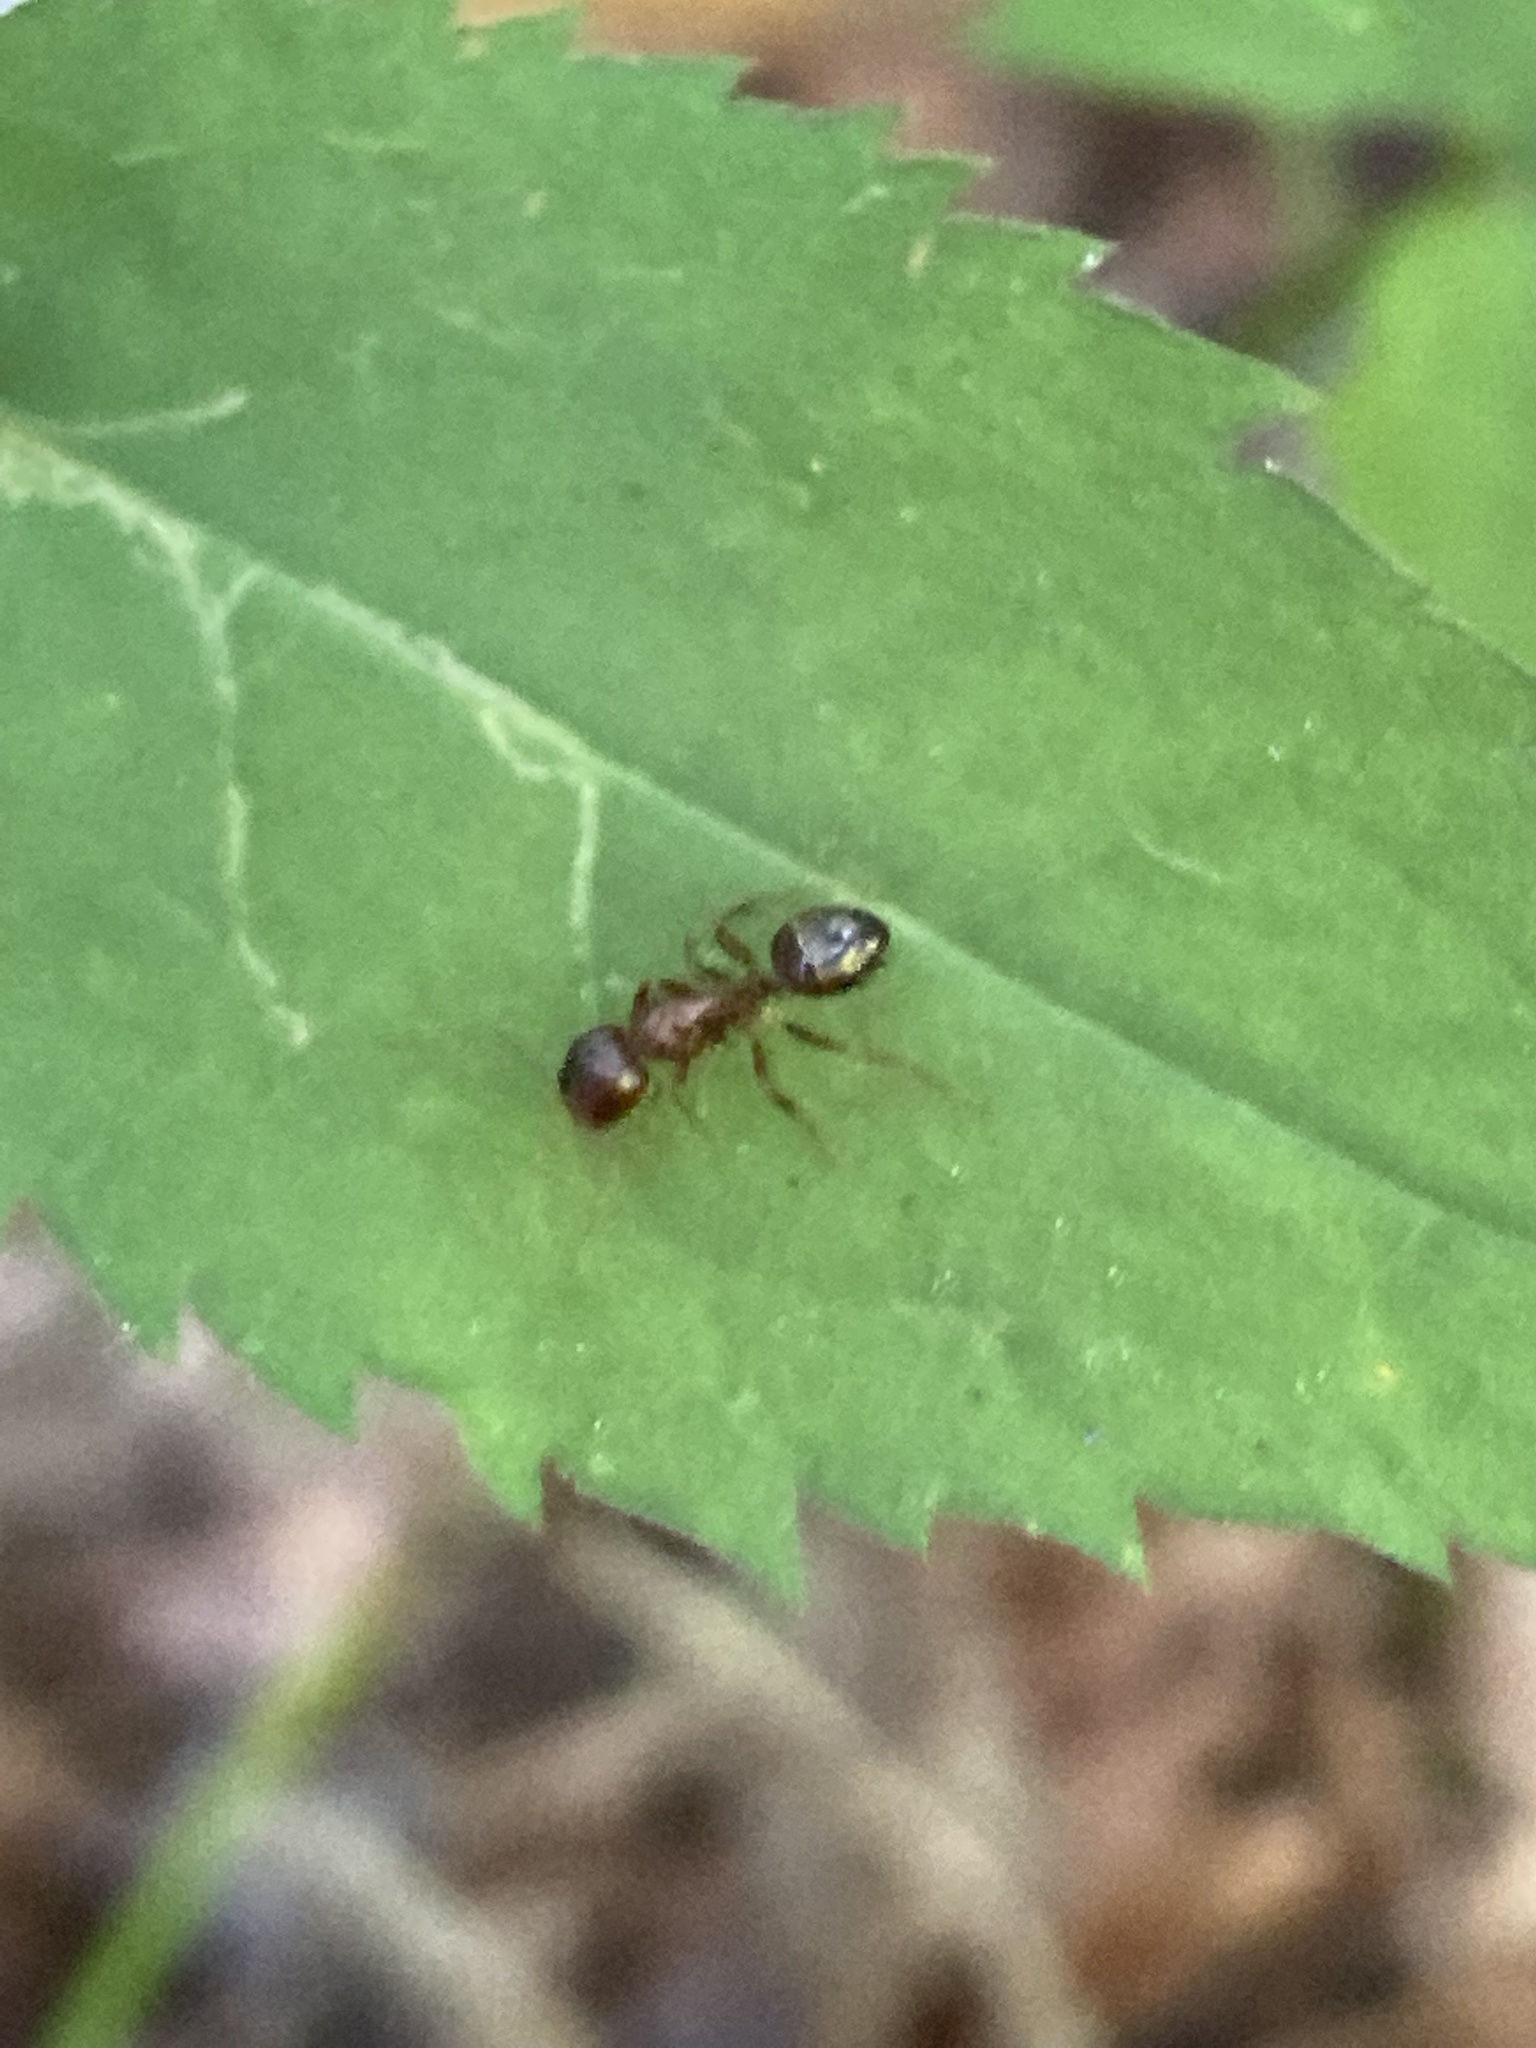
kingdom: Animalia
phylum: Arthropoda
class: Insecta
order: Hymenoptera
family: Formicidae
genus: Camponotus
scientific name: Camponotus subbarbatus
